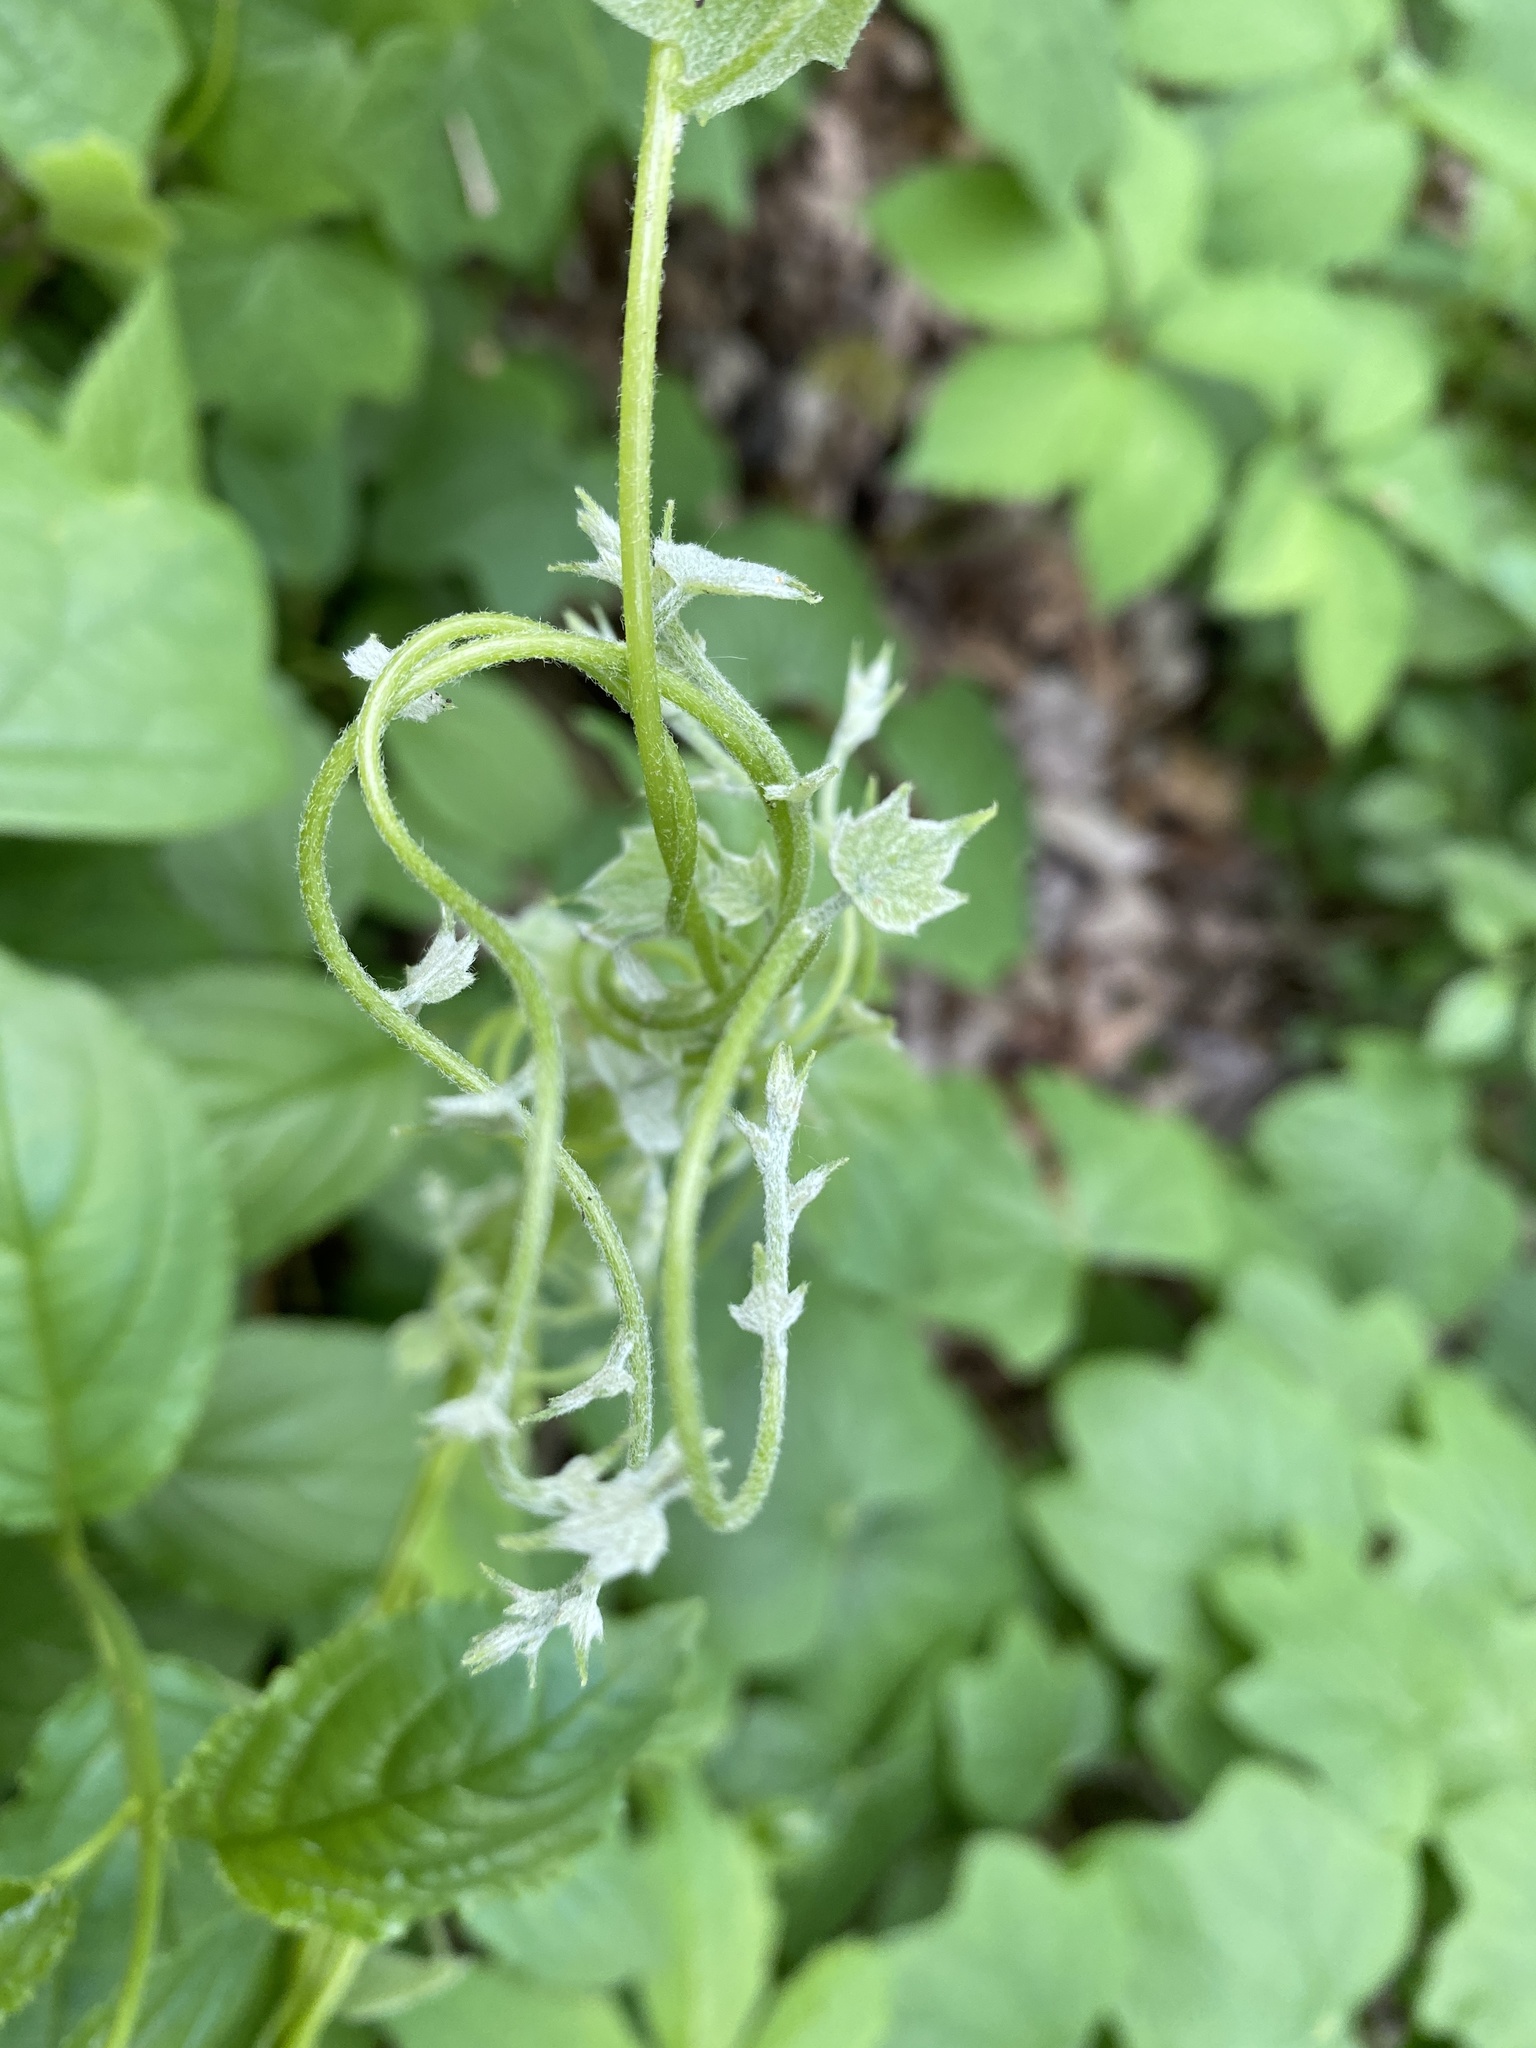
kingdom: Plantae
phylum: Tracheophyta
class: Magnoliopsida
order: Ranunculales
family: Menispermaceae
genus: Menispermum
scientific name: Menispermum canadense
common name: Moonseed
